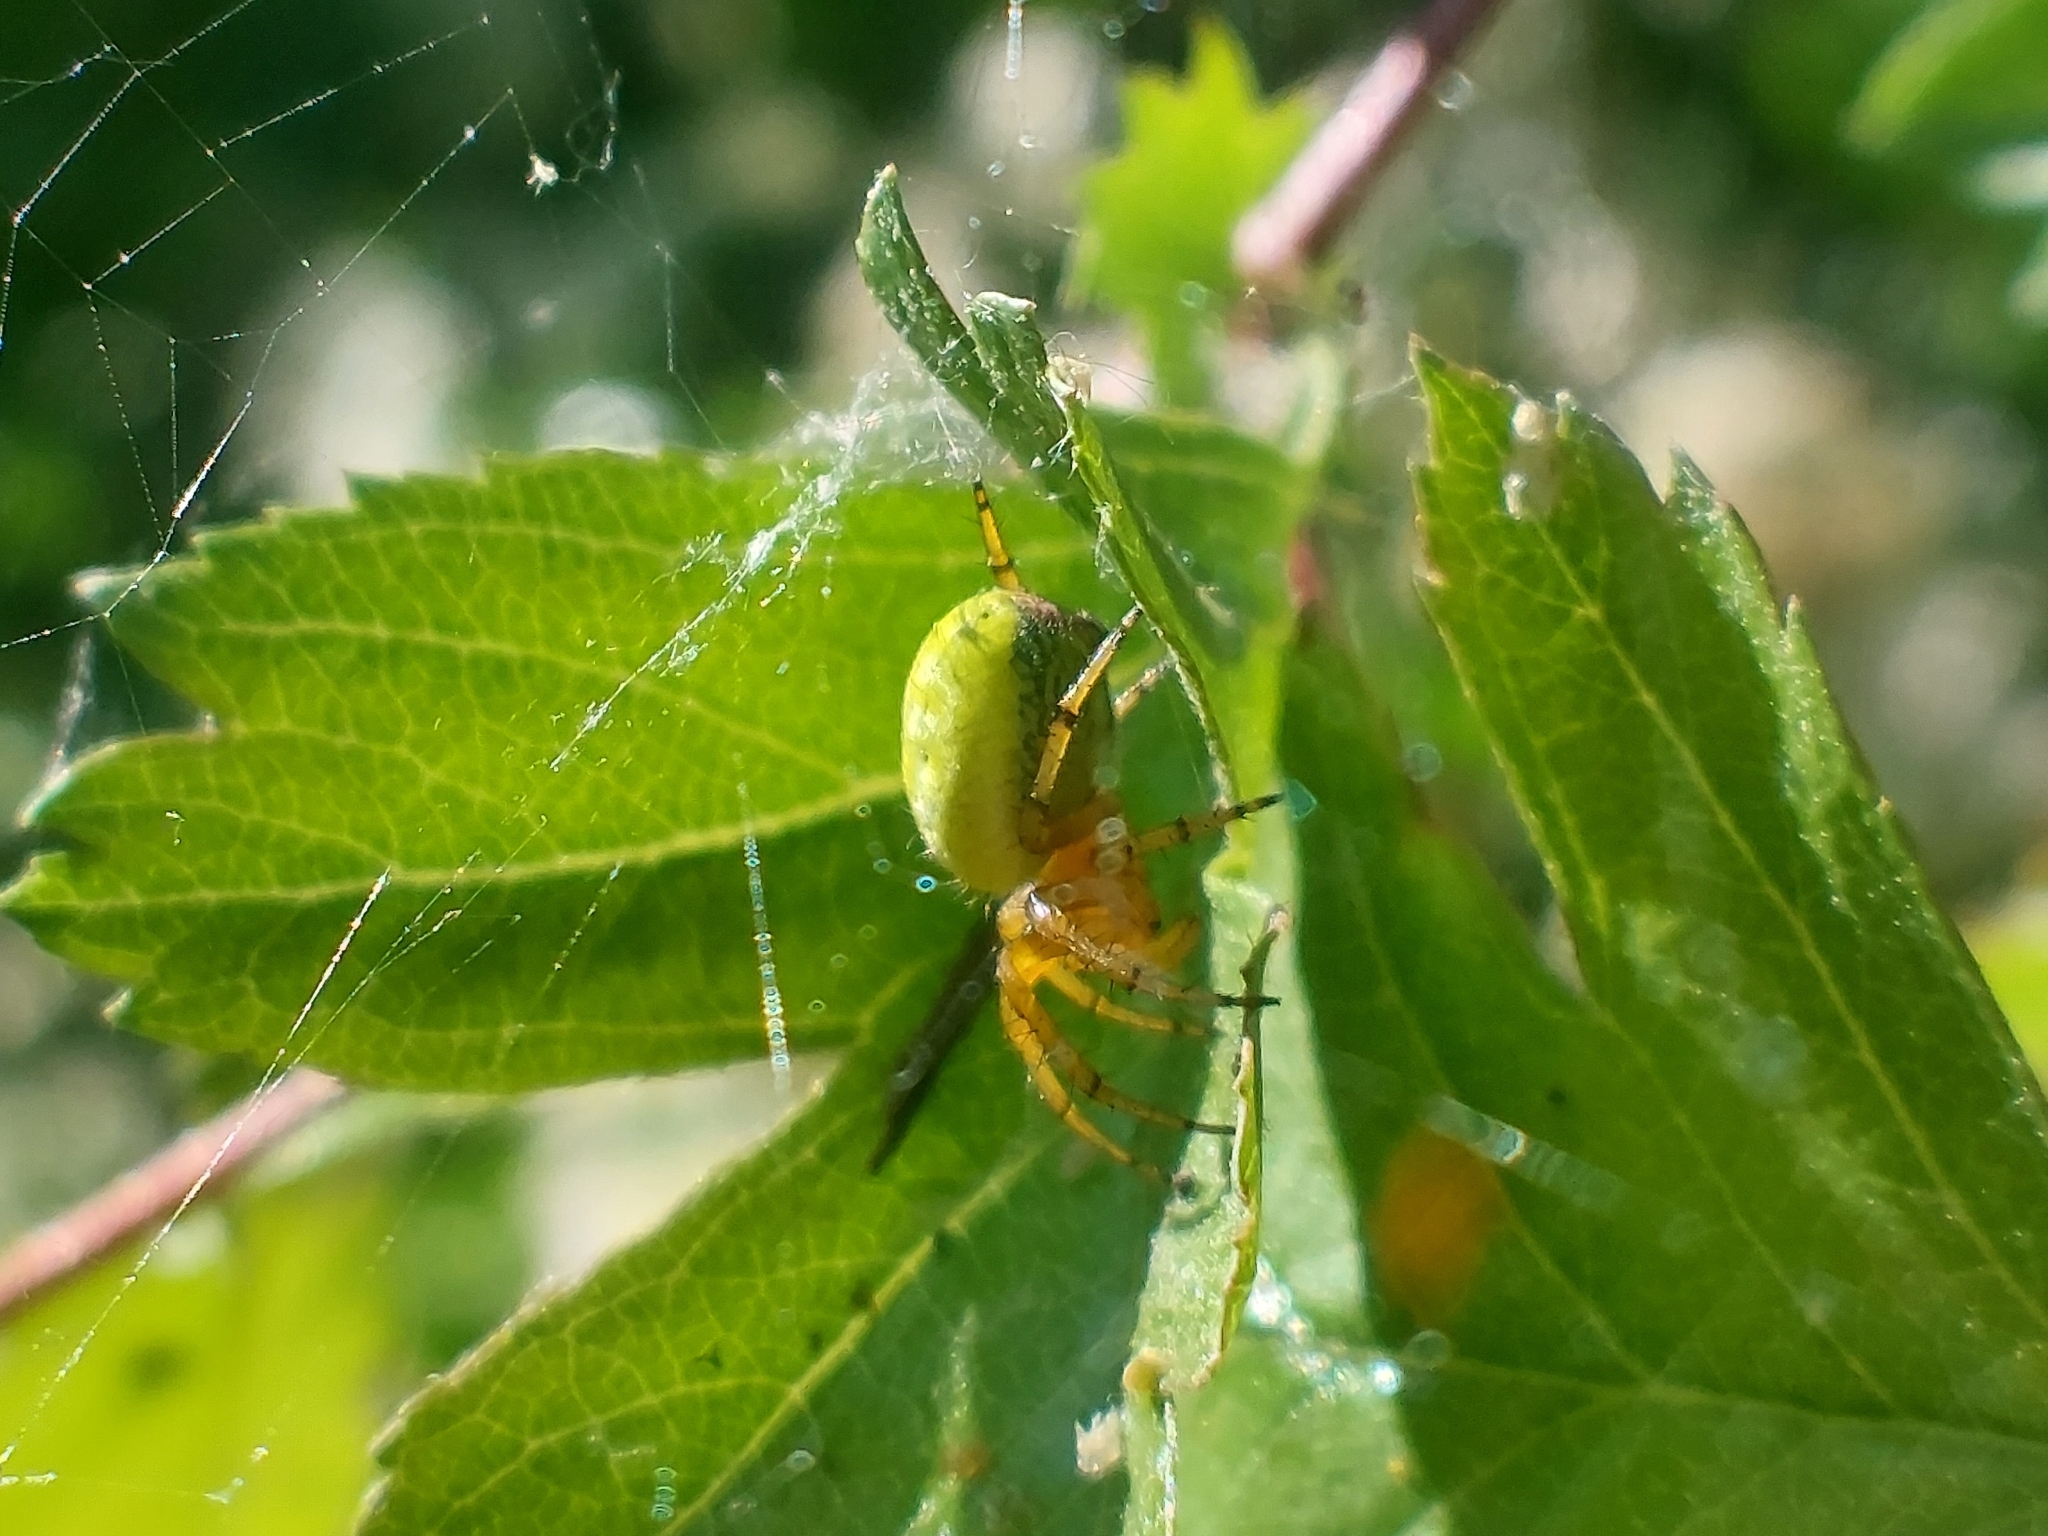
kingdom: Animalia
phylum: Arthropoda
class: Arachnida
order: Araneae
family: Araneidae
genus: Araniella
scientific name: Araniella
